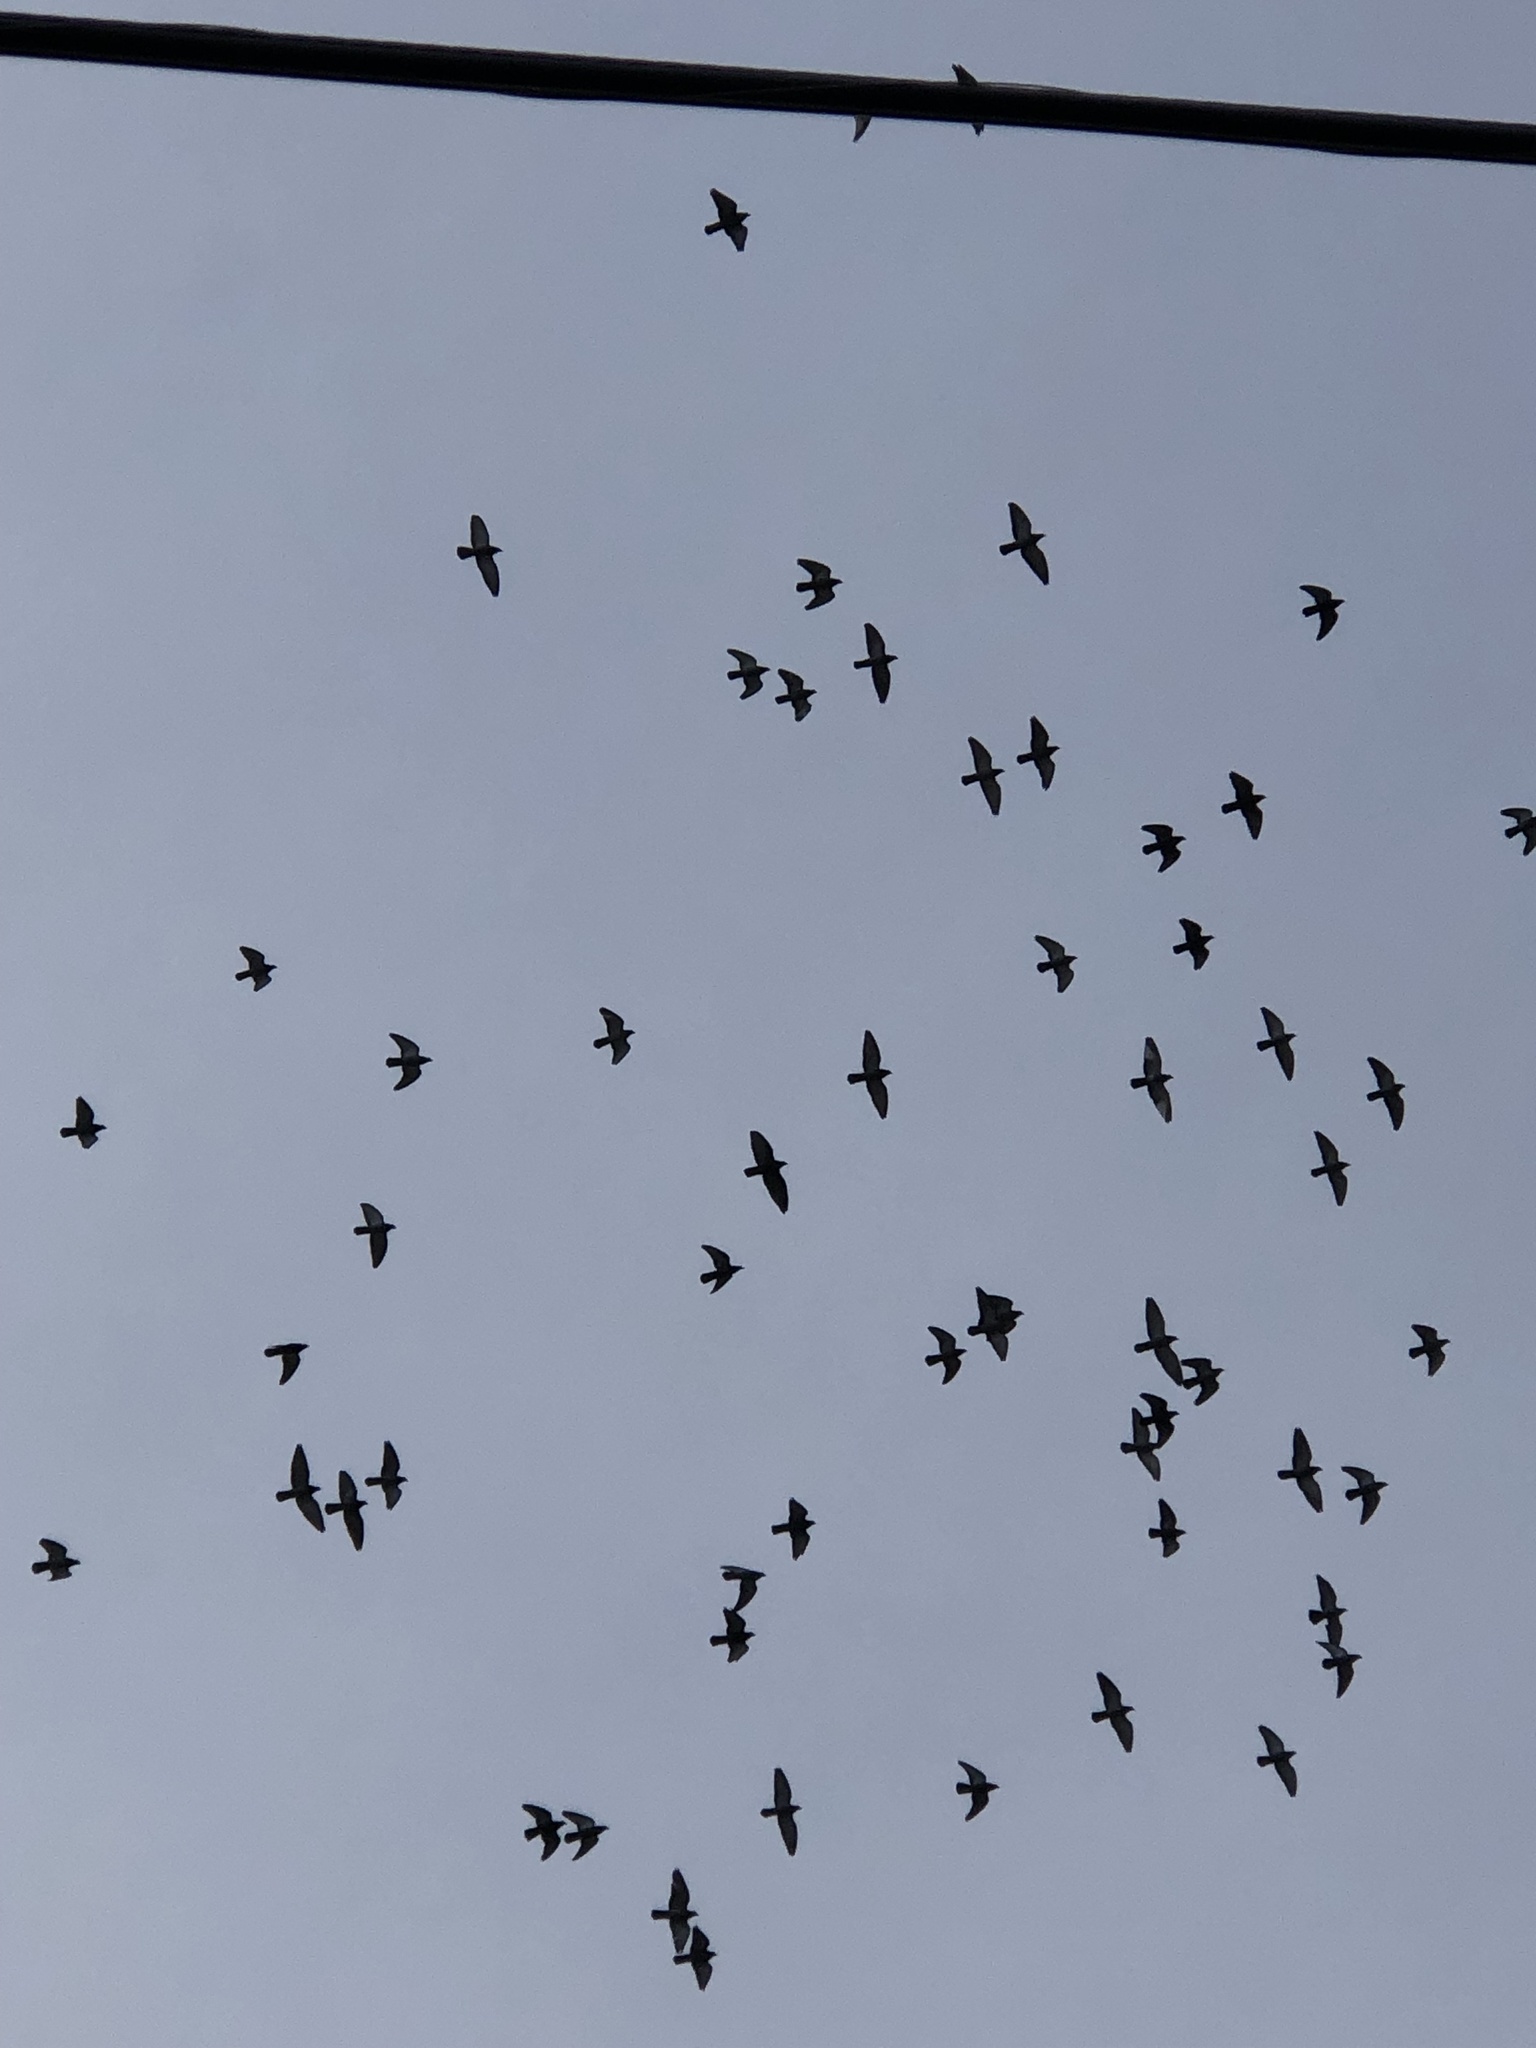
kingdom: Animalia
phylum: Chordata
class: Aves
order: Columbiformes
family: Columbidae
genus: Columba
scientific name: Columba livia
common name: Rock pigeon
